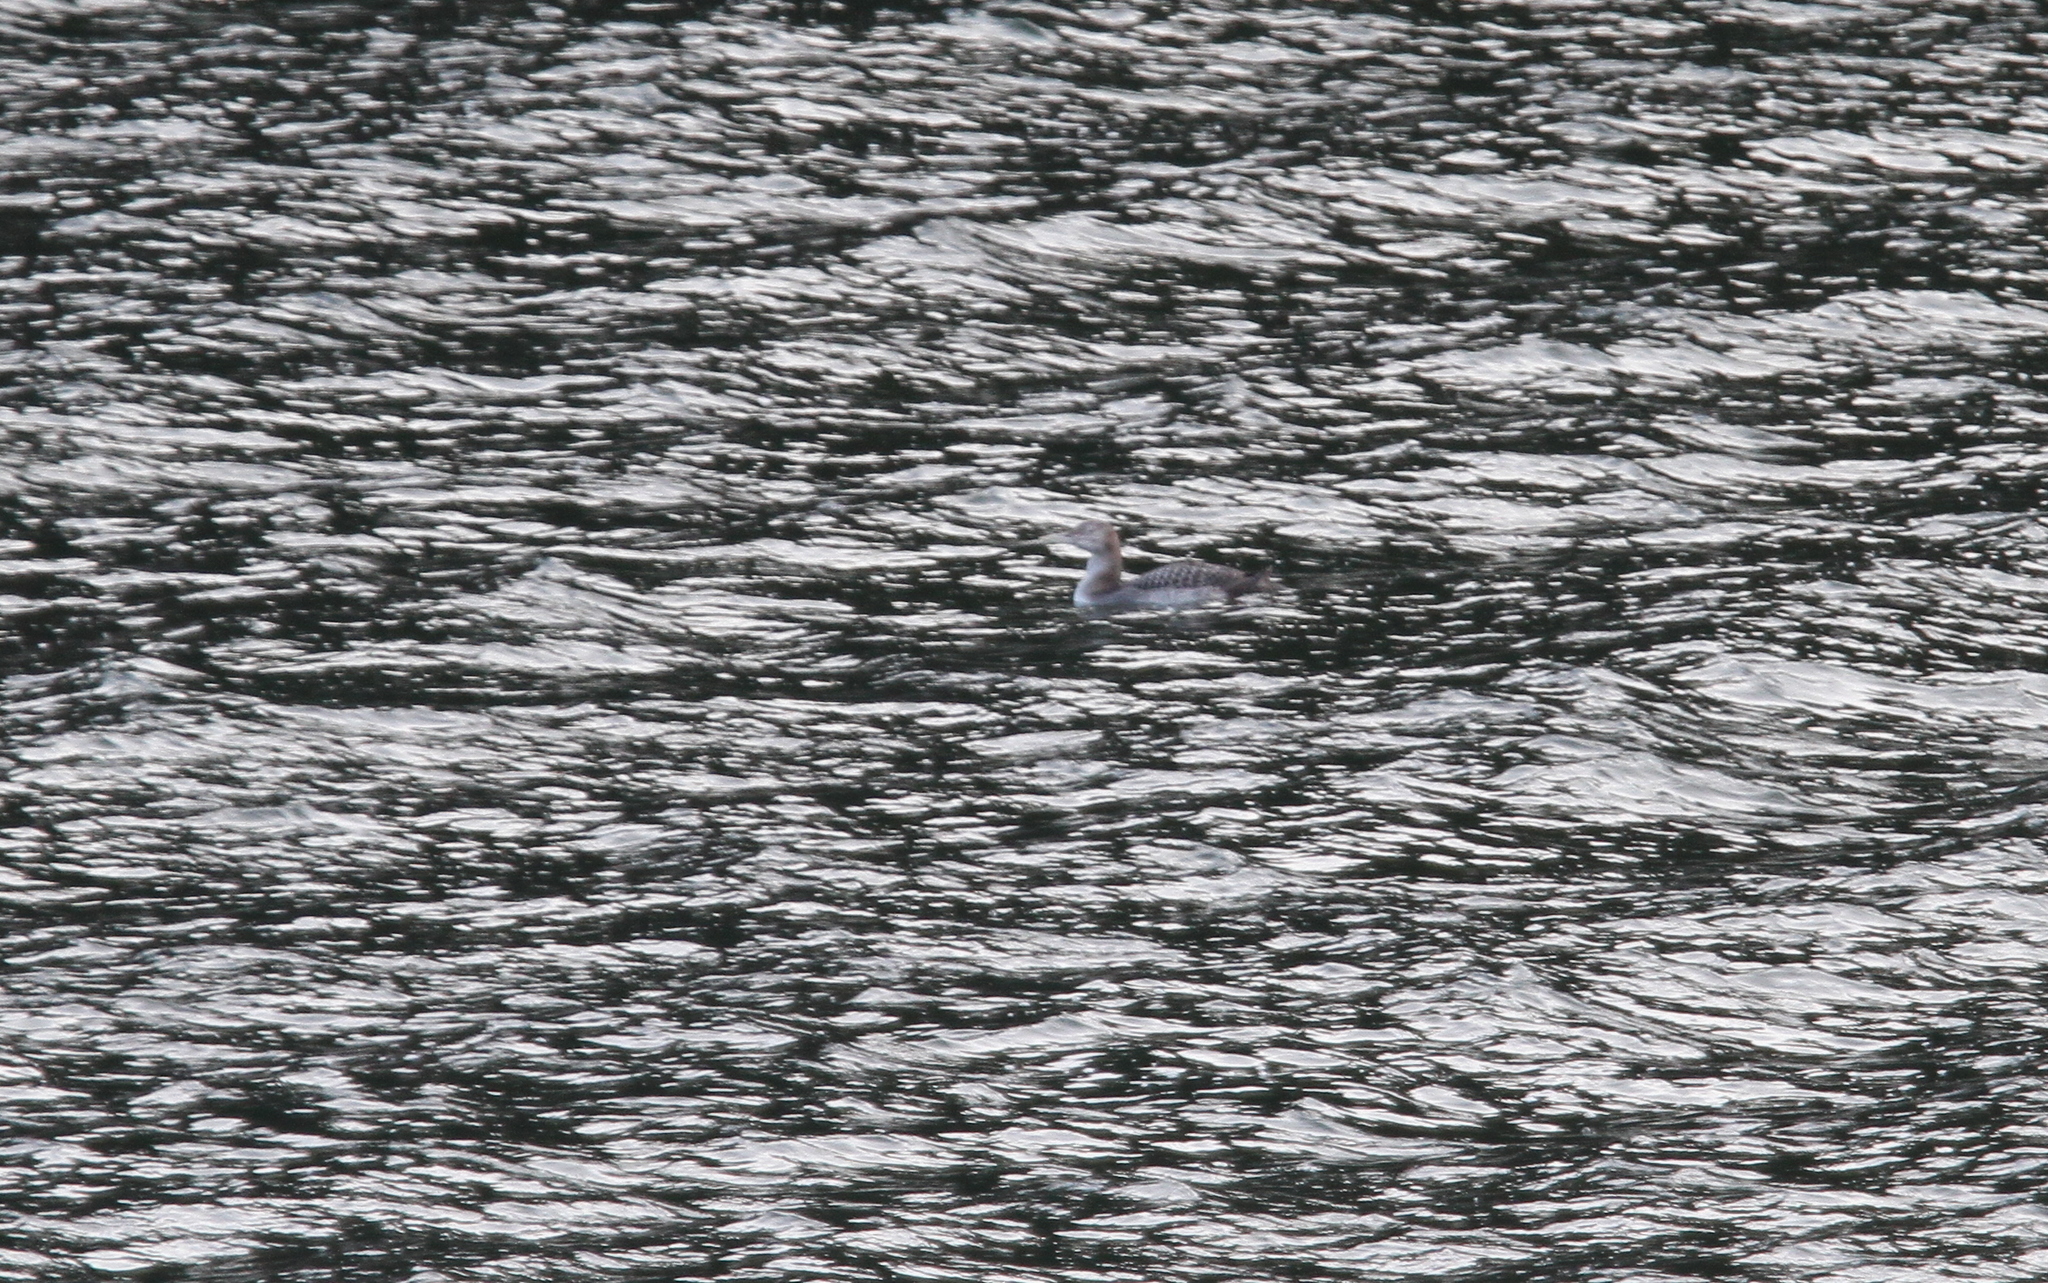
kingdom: Animalia
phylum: Chordata
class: Aves
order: Gaviiformes
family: Gaviidae
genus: Gavia
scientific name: Gavia adamsii
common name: Yellow-billed loon
